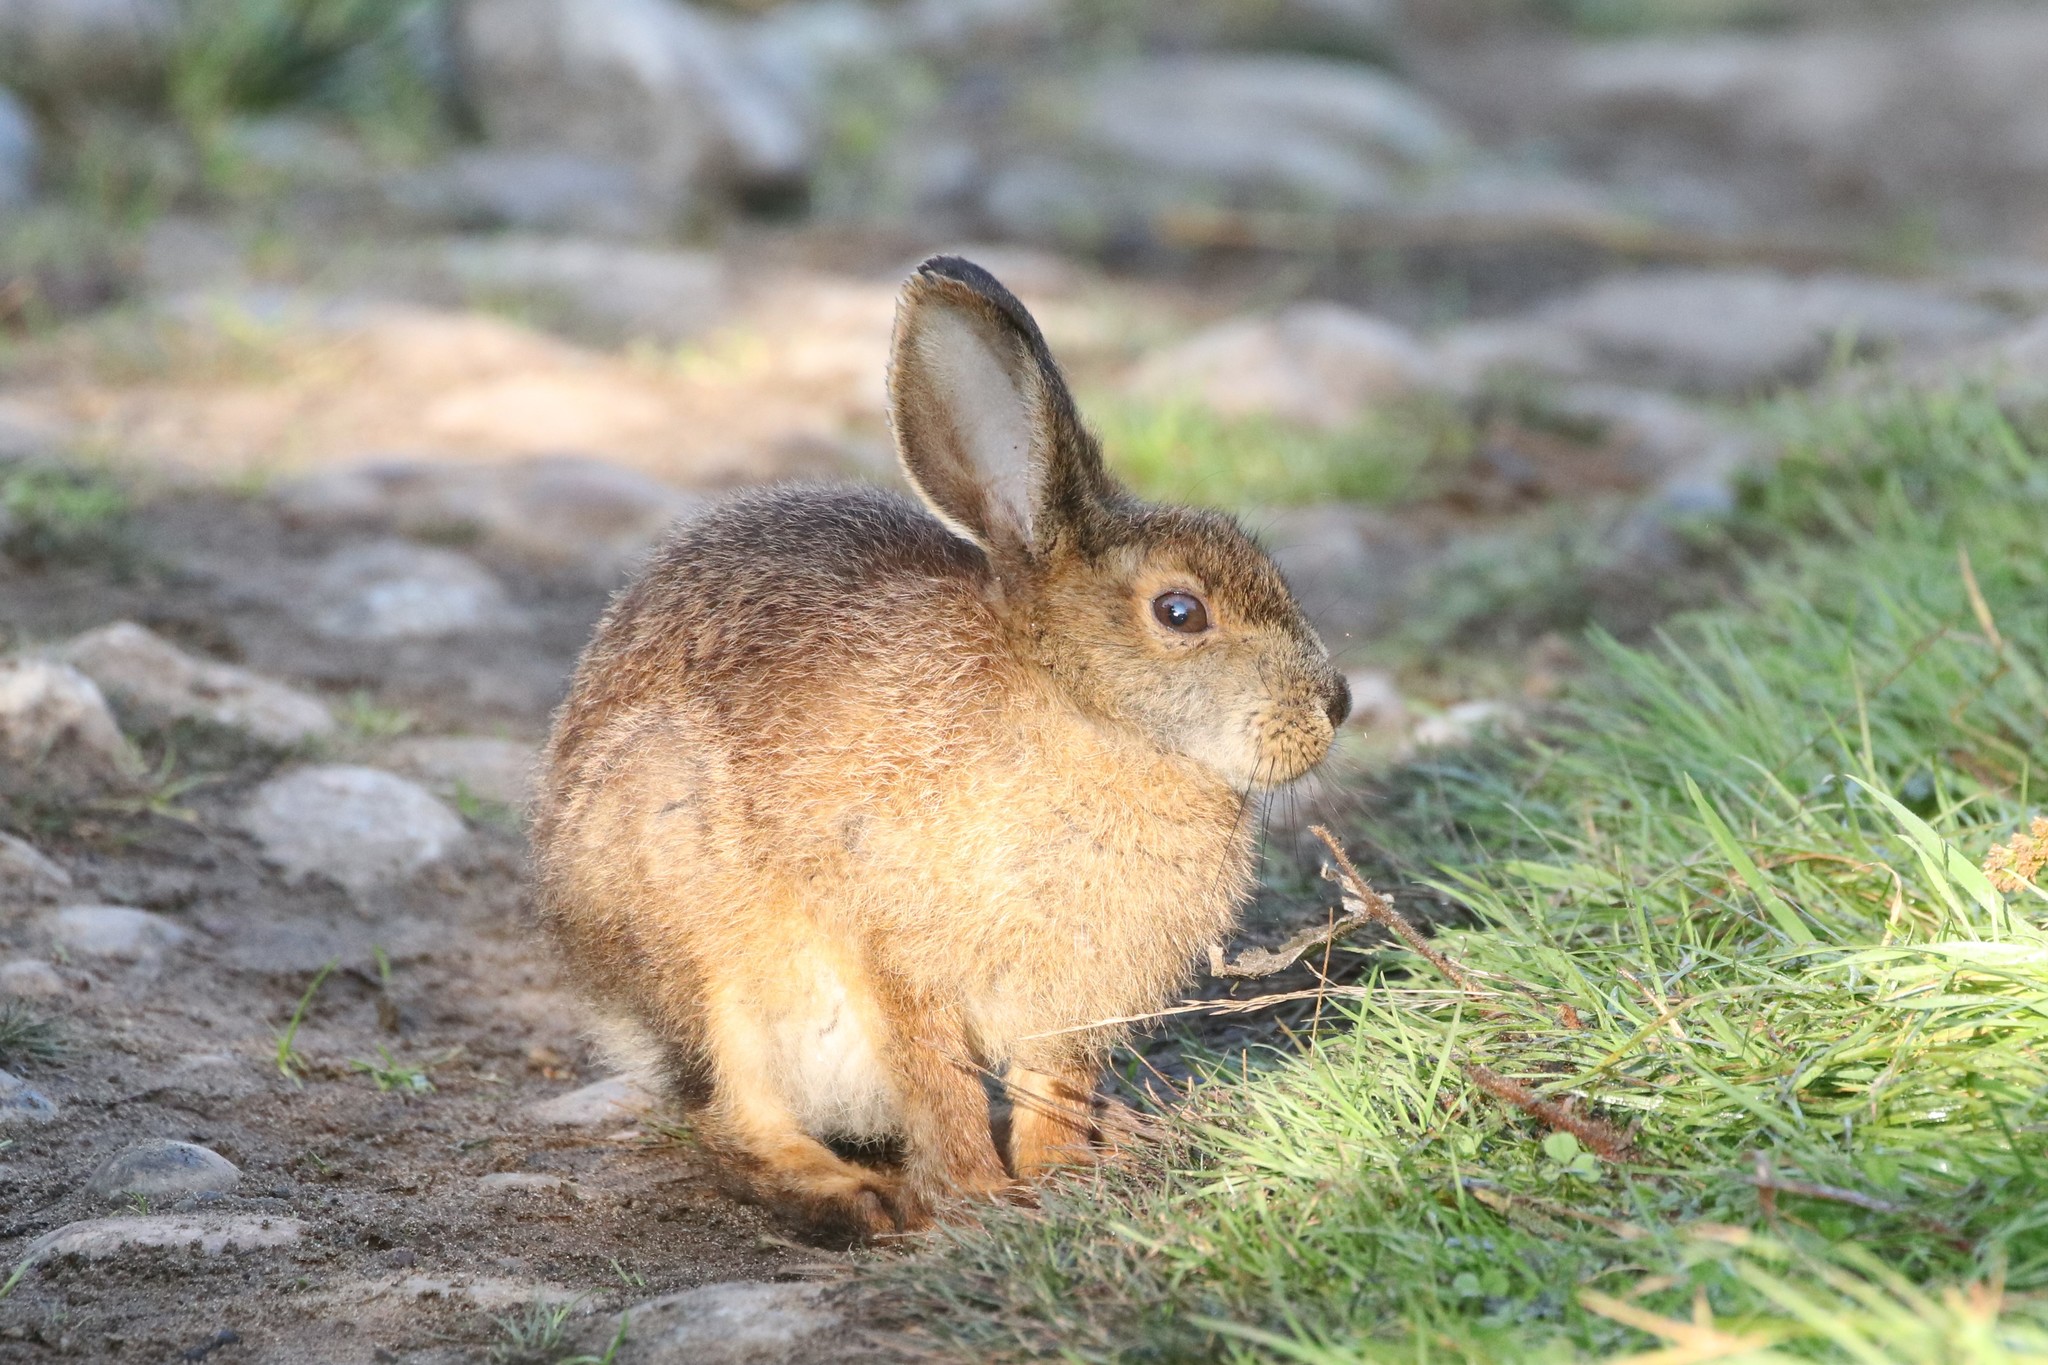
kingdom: Animalia
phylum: Chordata
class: Mammalia
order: Lagomorpha
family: Leporidae
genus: Lepus
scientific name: Lepus americanus
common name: Snowshoe hare
